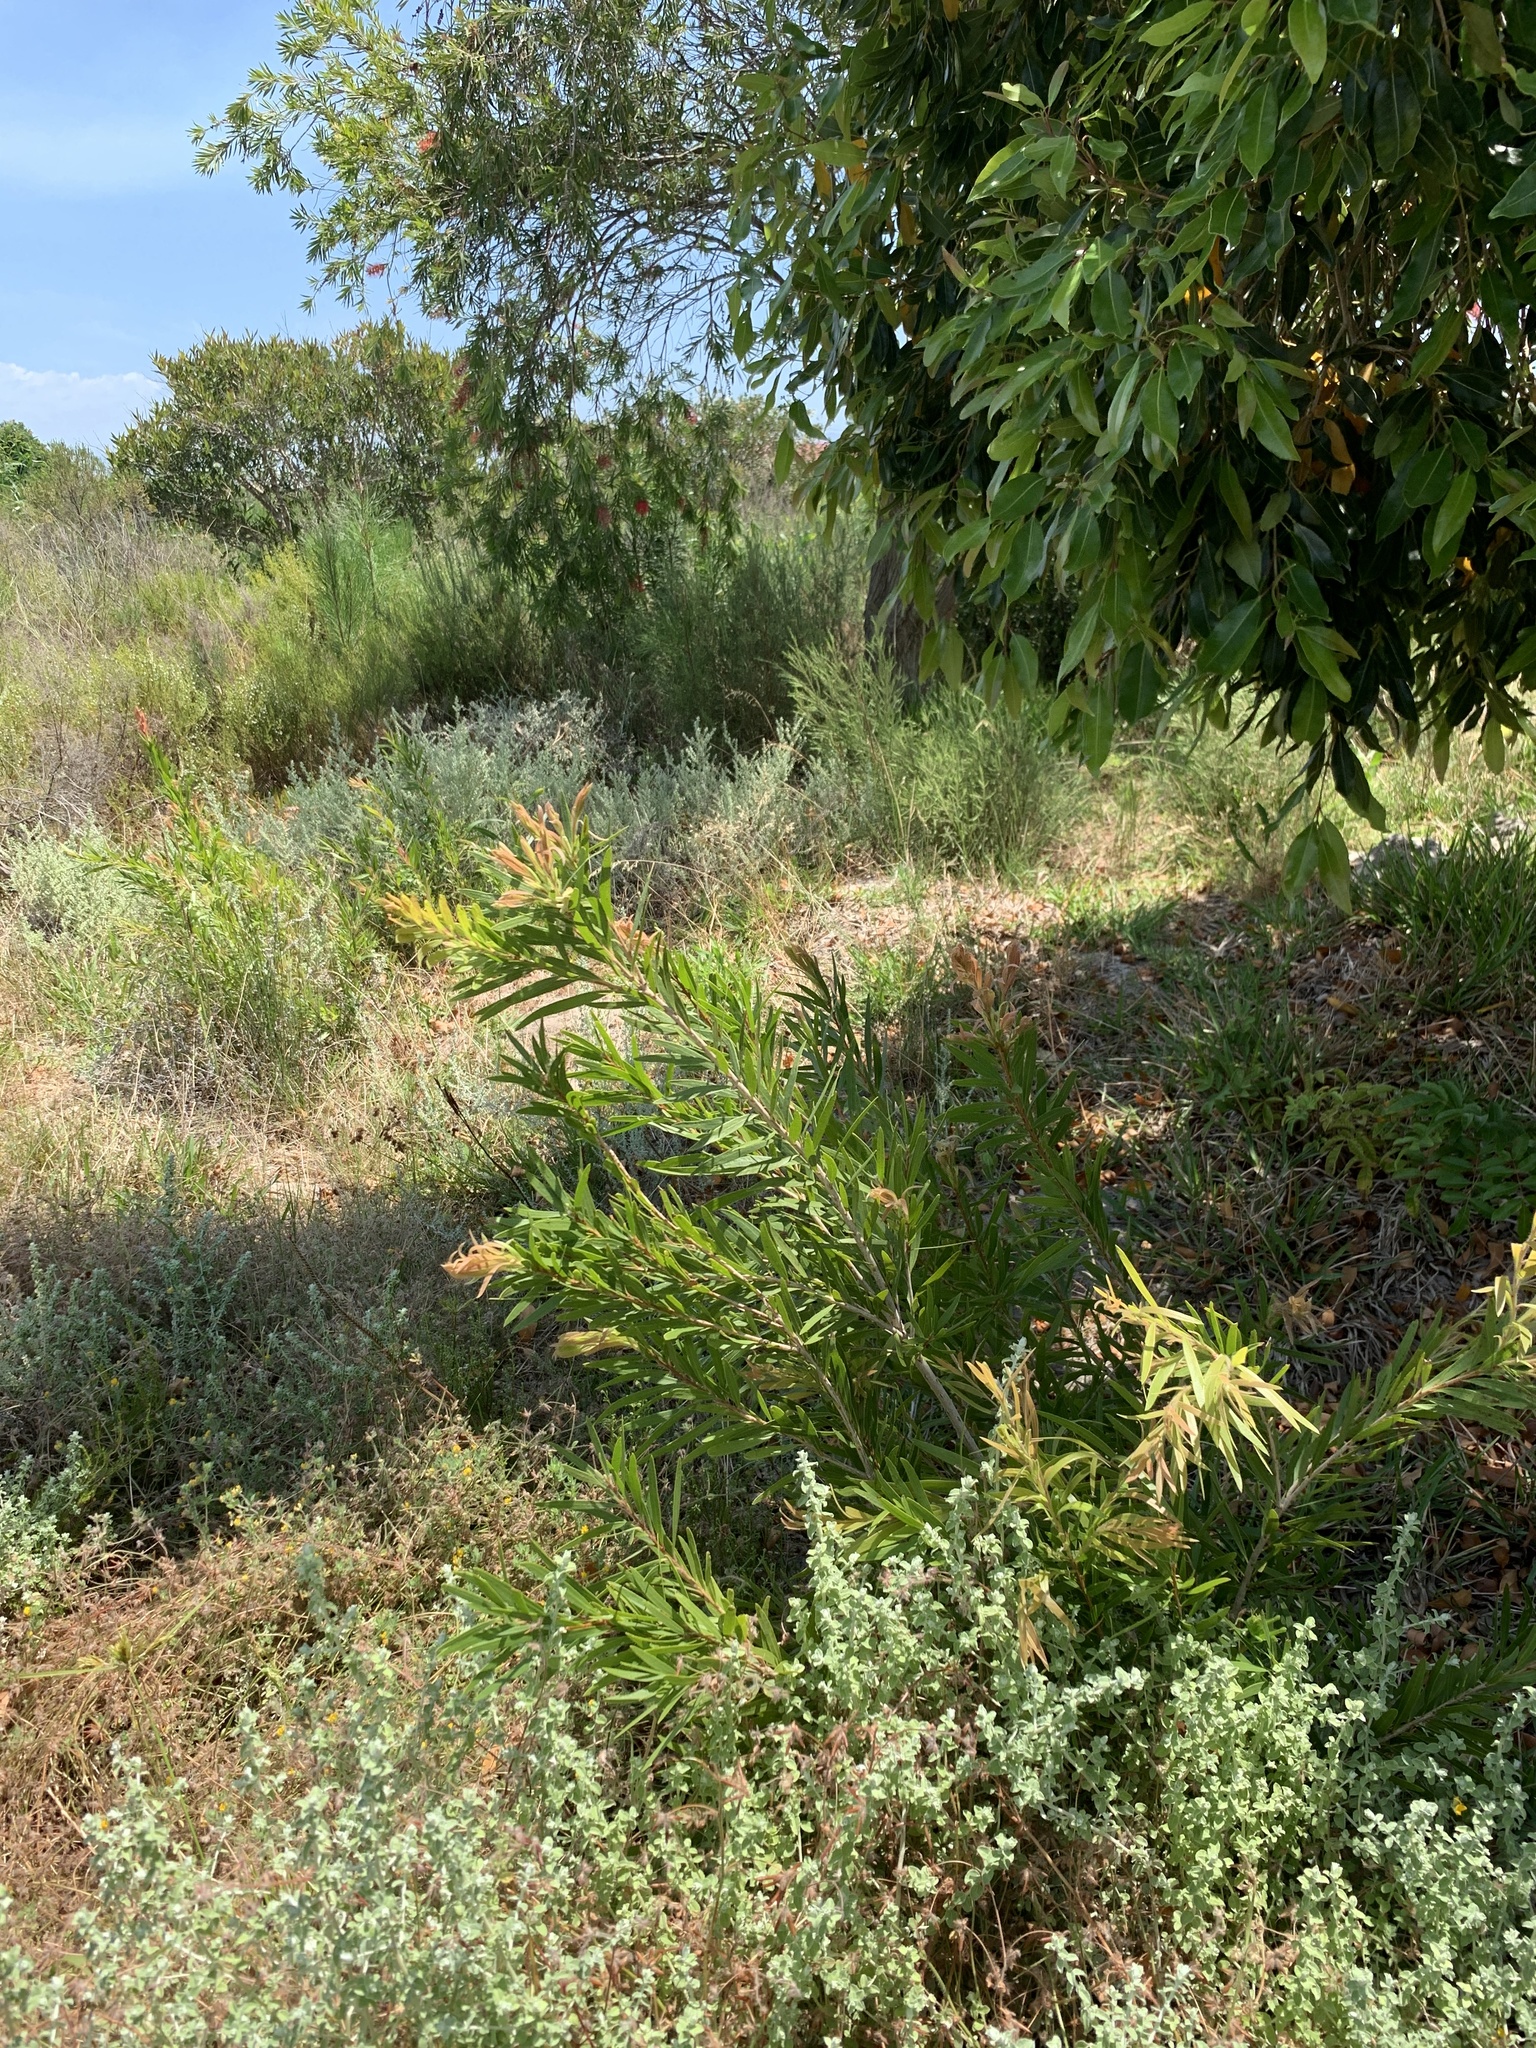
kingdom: Plantae
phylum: Tracheophyta
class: Magnoliopsida
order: Myrtales
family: Myrtaceae
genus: Callistemon
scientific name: Callistemon viminalis
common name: Drooping bottlebrush
